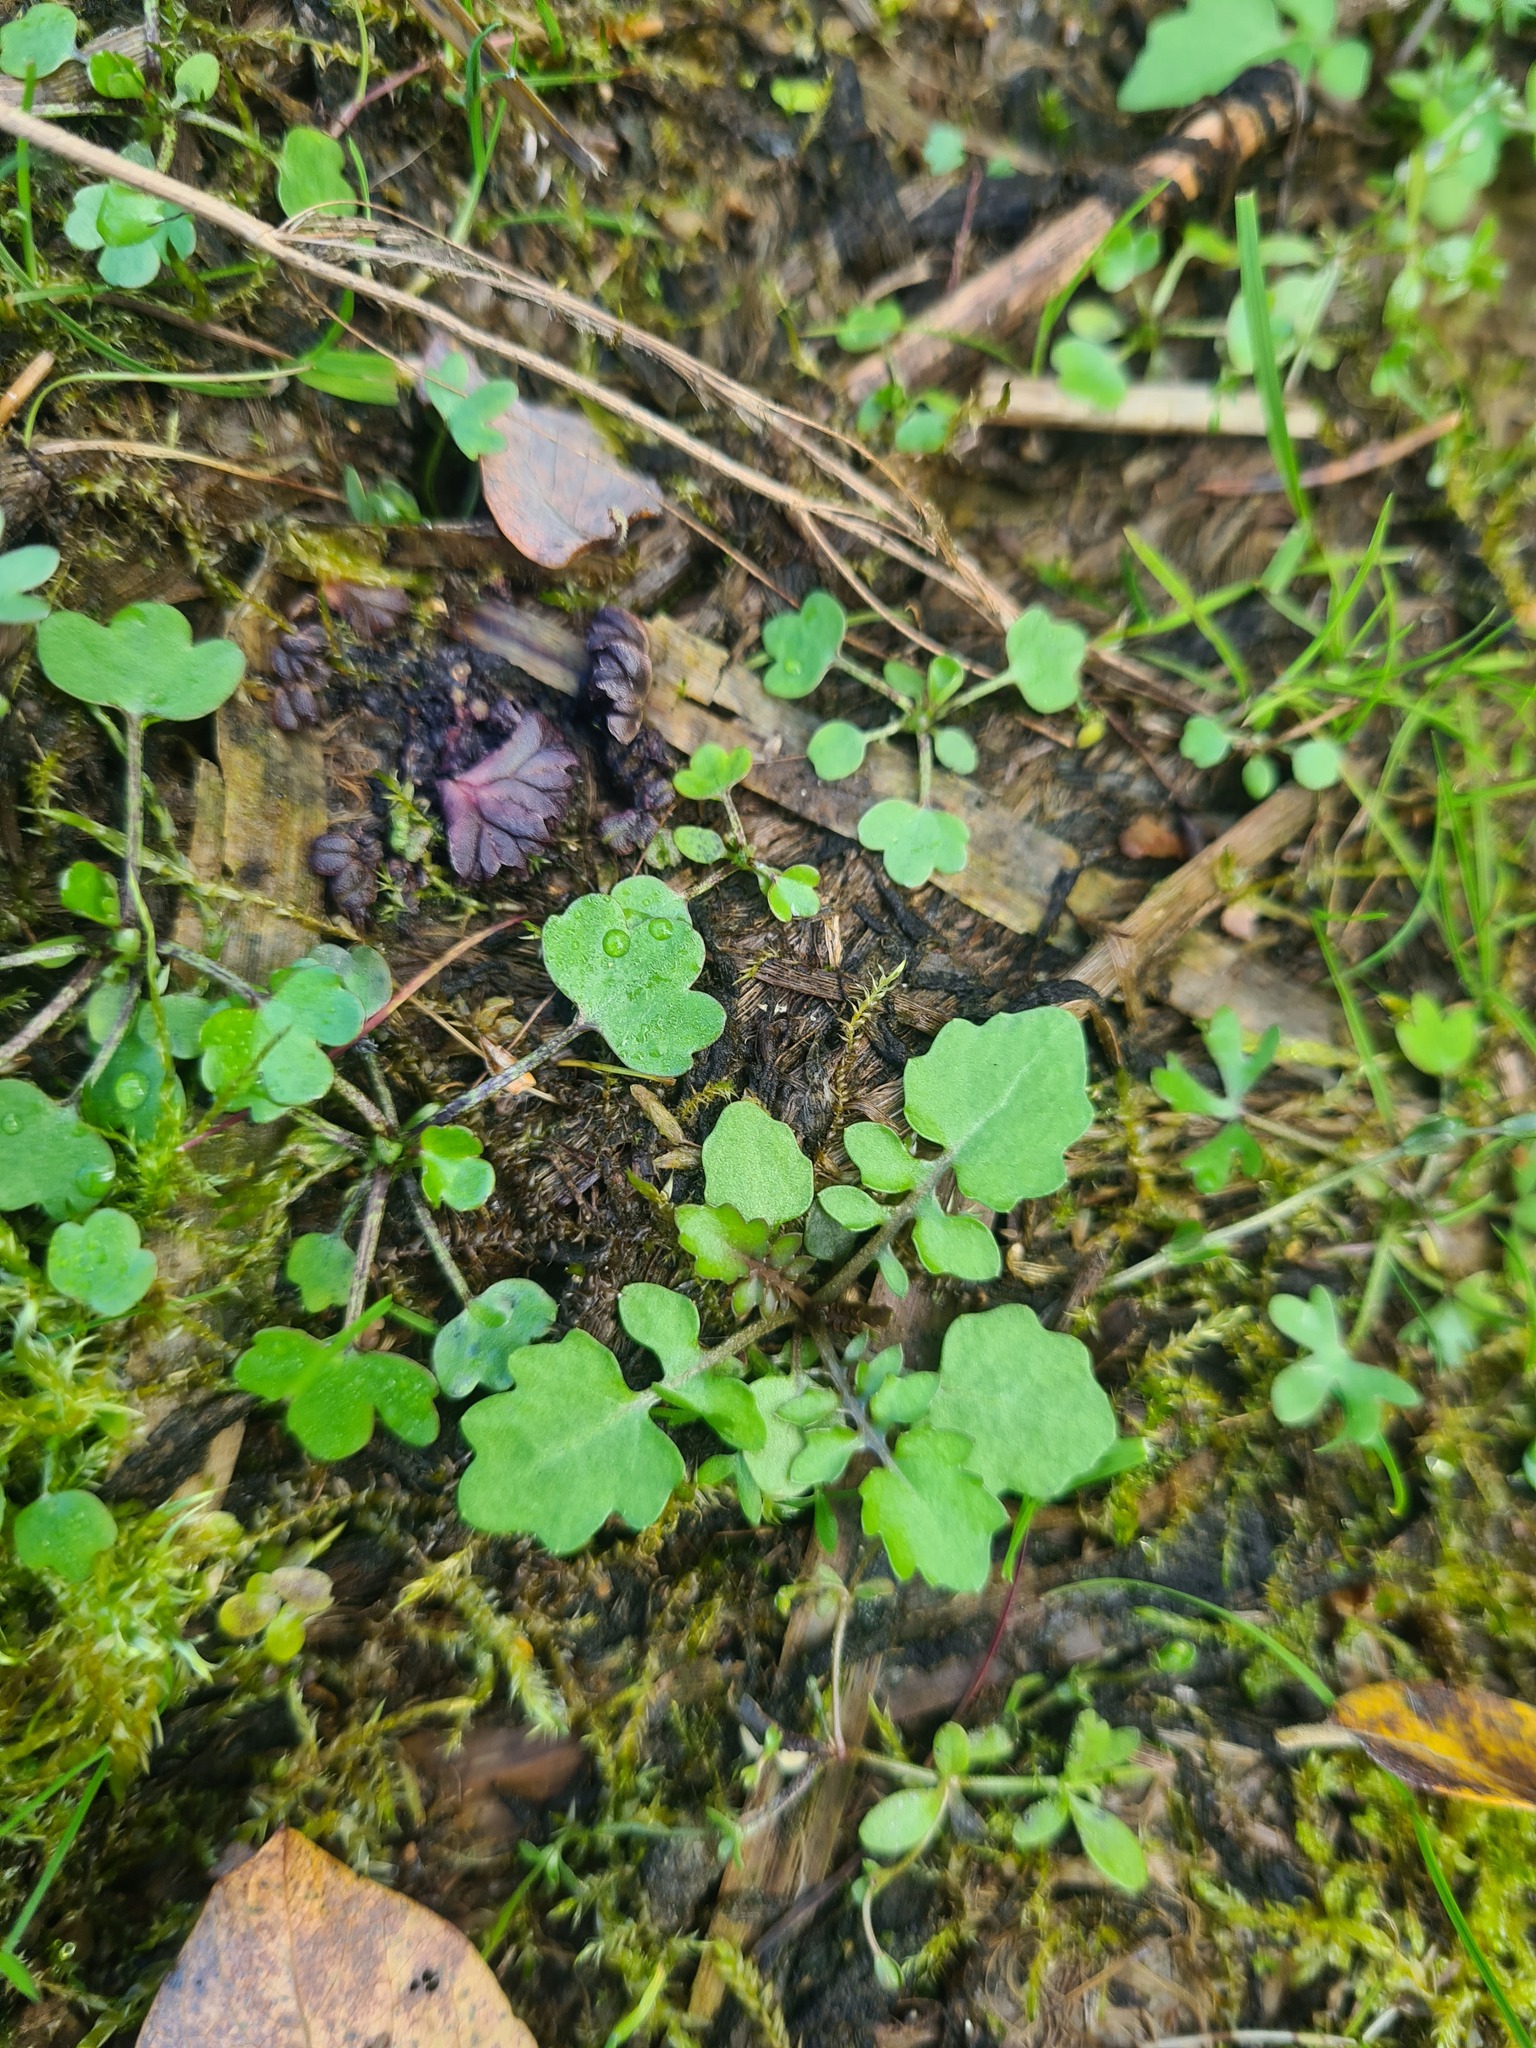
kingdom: Plantae
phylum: Tracheophyta
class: Magnoliopsida
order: Brassicales
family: Brassicaceae
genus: Rorippa
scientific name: Rorippa palustris
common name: Marsh yellow-cress
